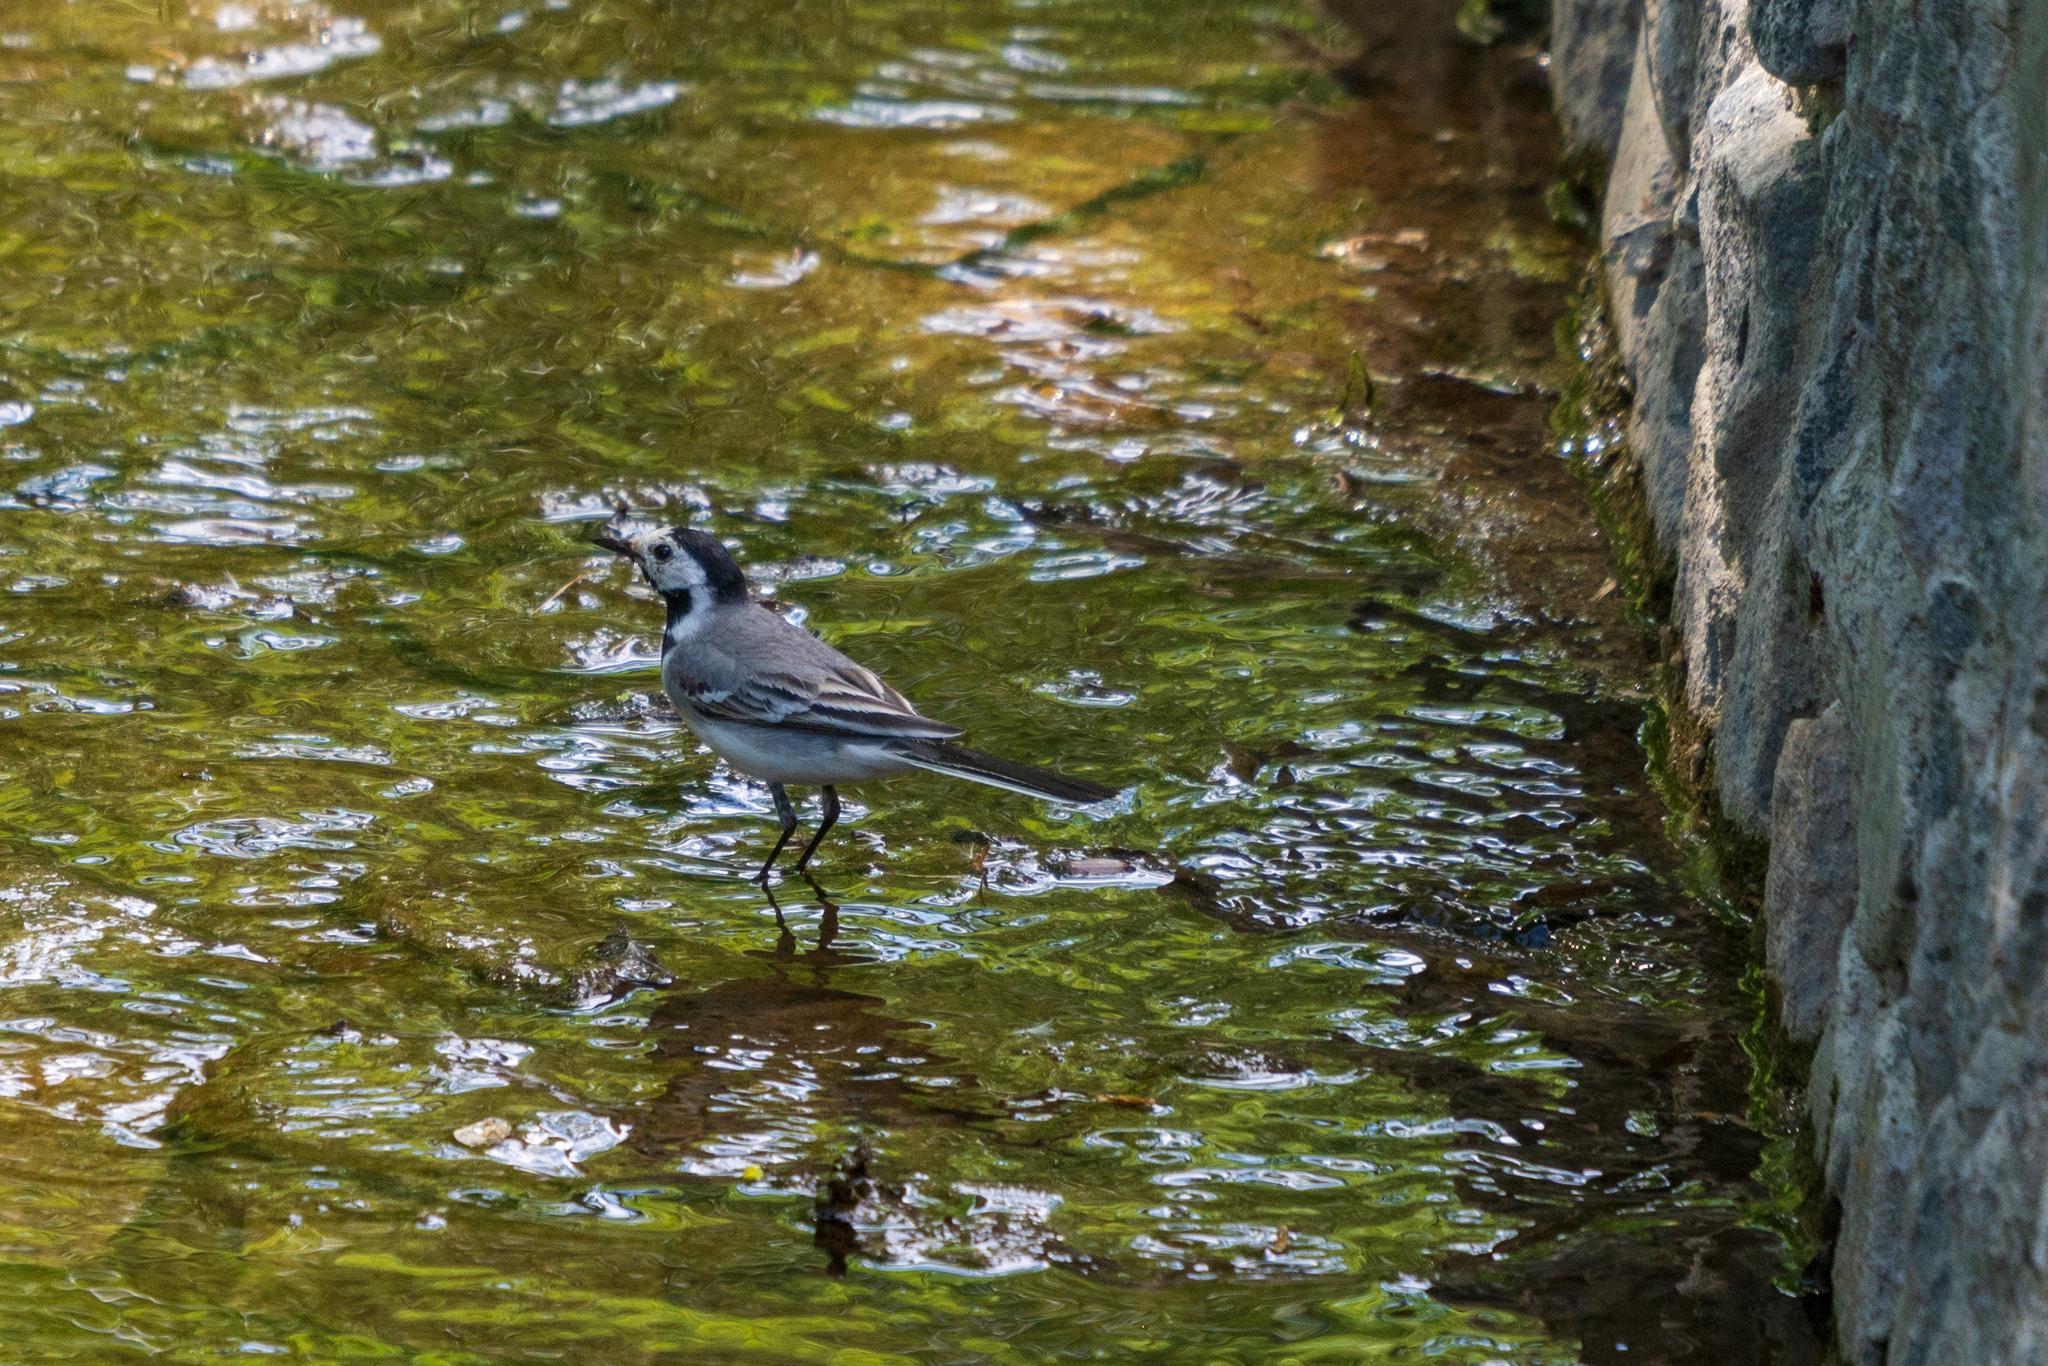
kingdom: Animalia
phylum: Chordata
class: Aves
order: Passeriformes
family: Motacillidae
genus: Motacilla
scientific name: Motacilla alba
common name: White wagtail
